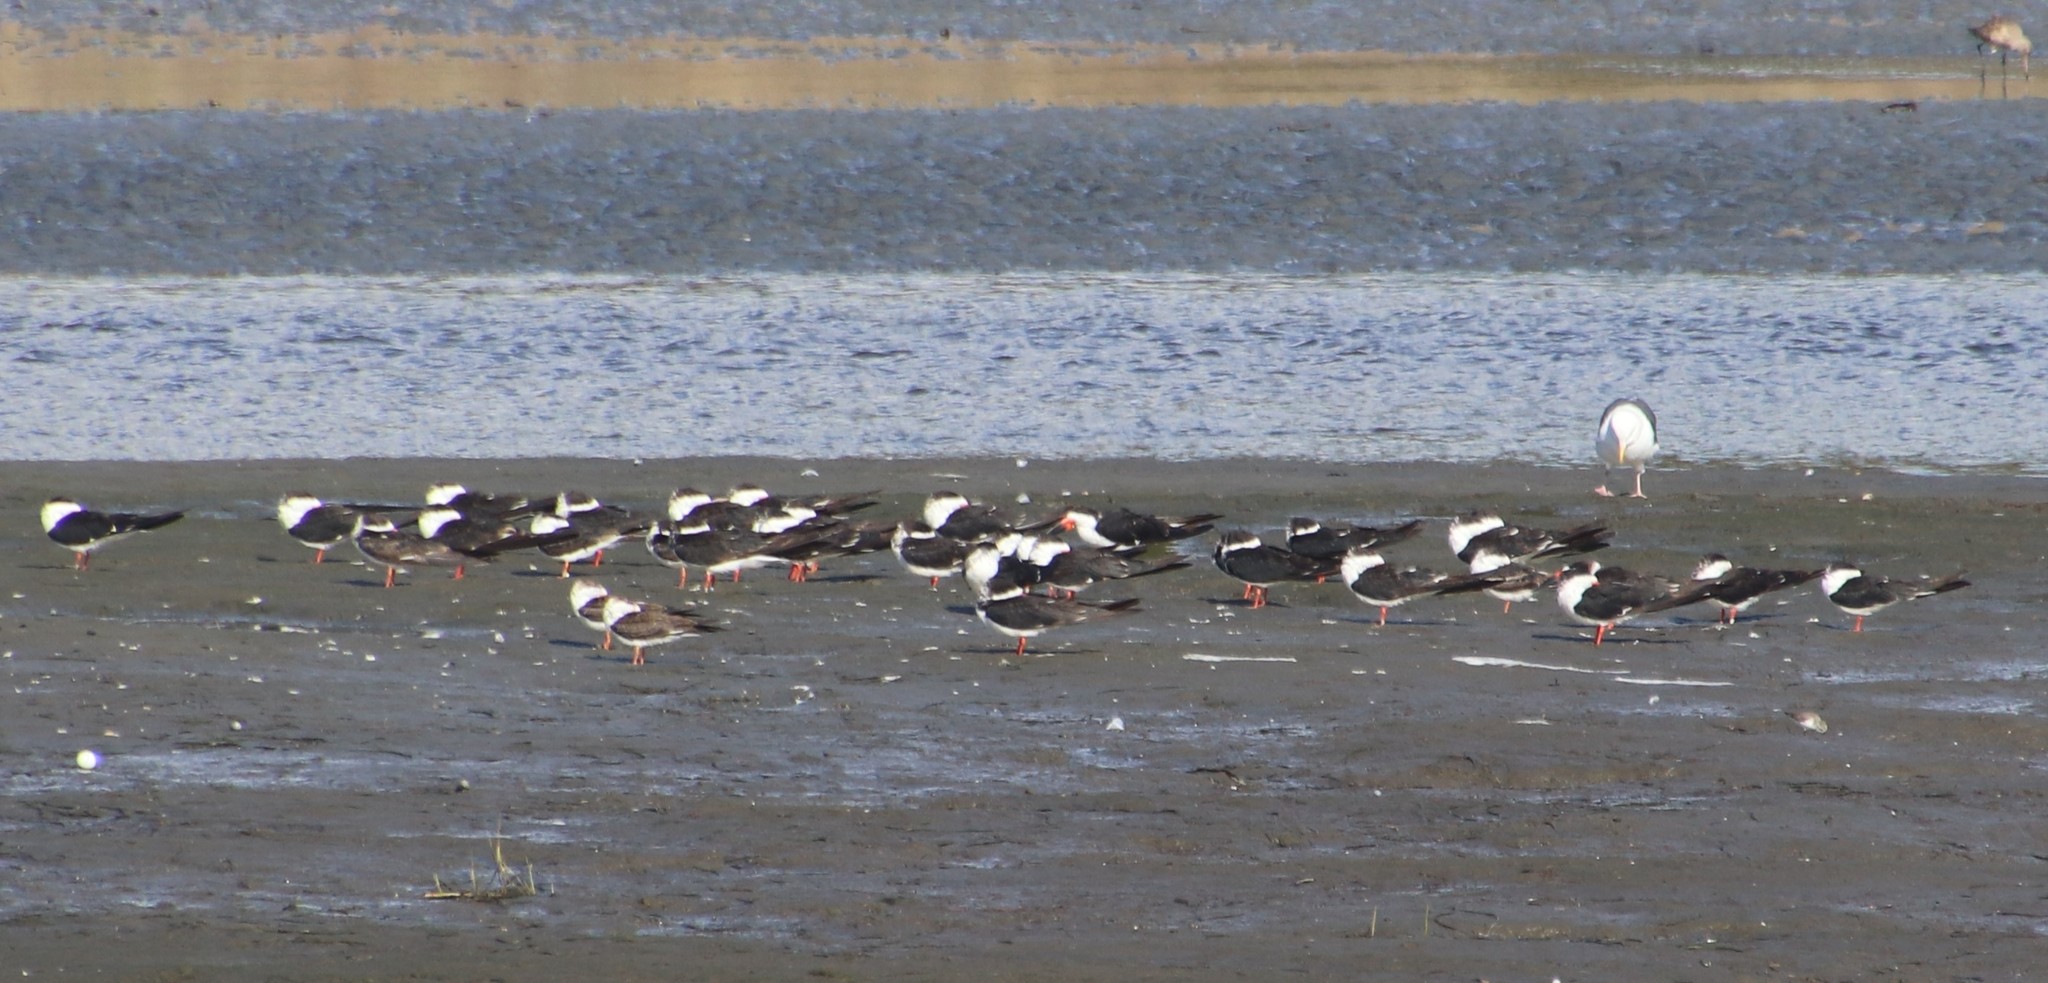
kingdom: Animalia
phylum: Chordata
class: Aves
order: Charadriiformes
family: Laridae
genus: Rynchops
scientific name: Rynchops niger
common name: Black skimmer
